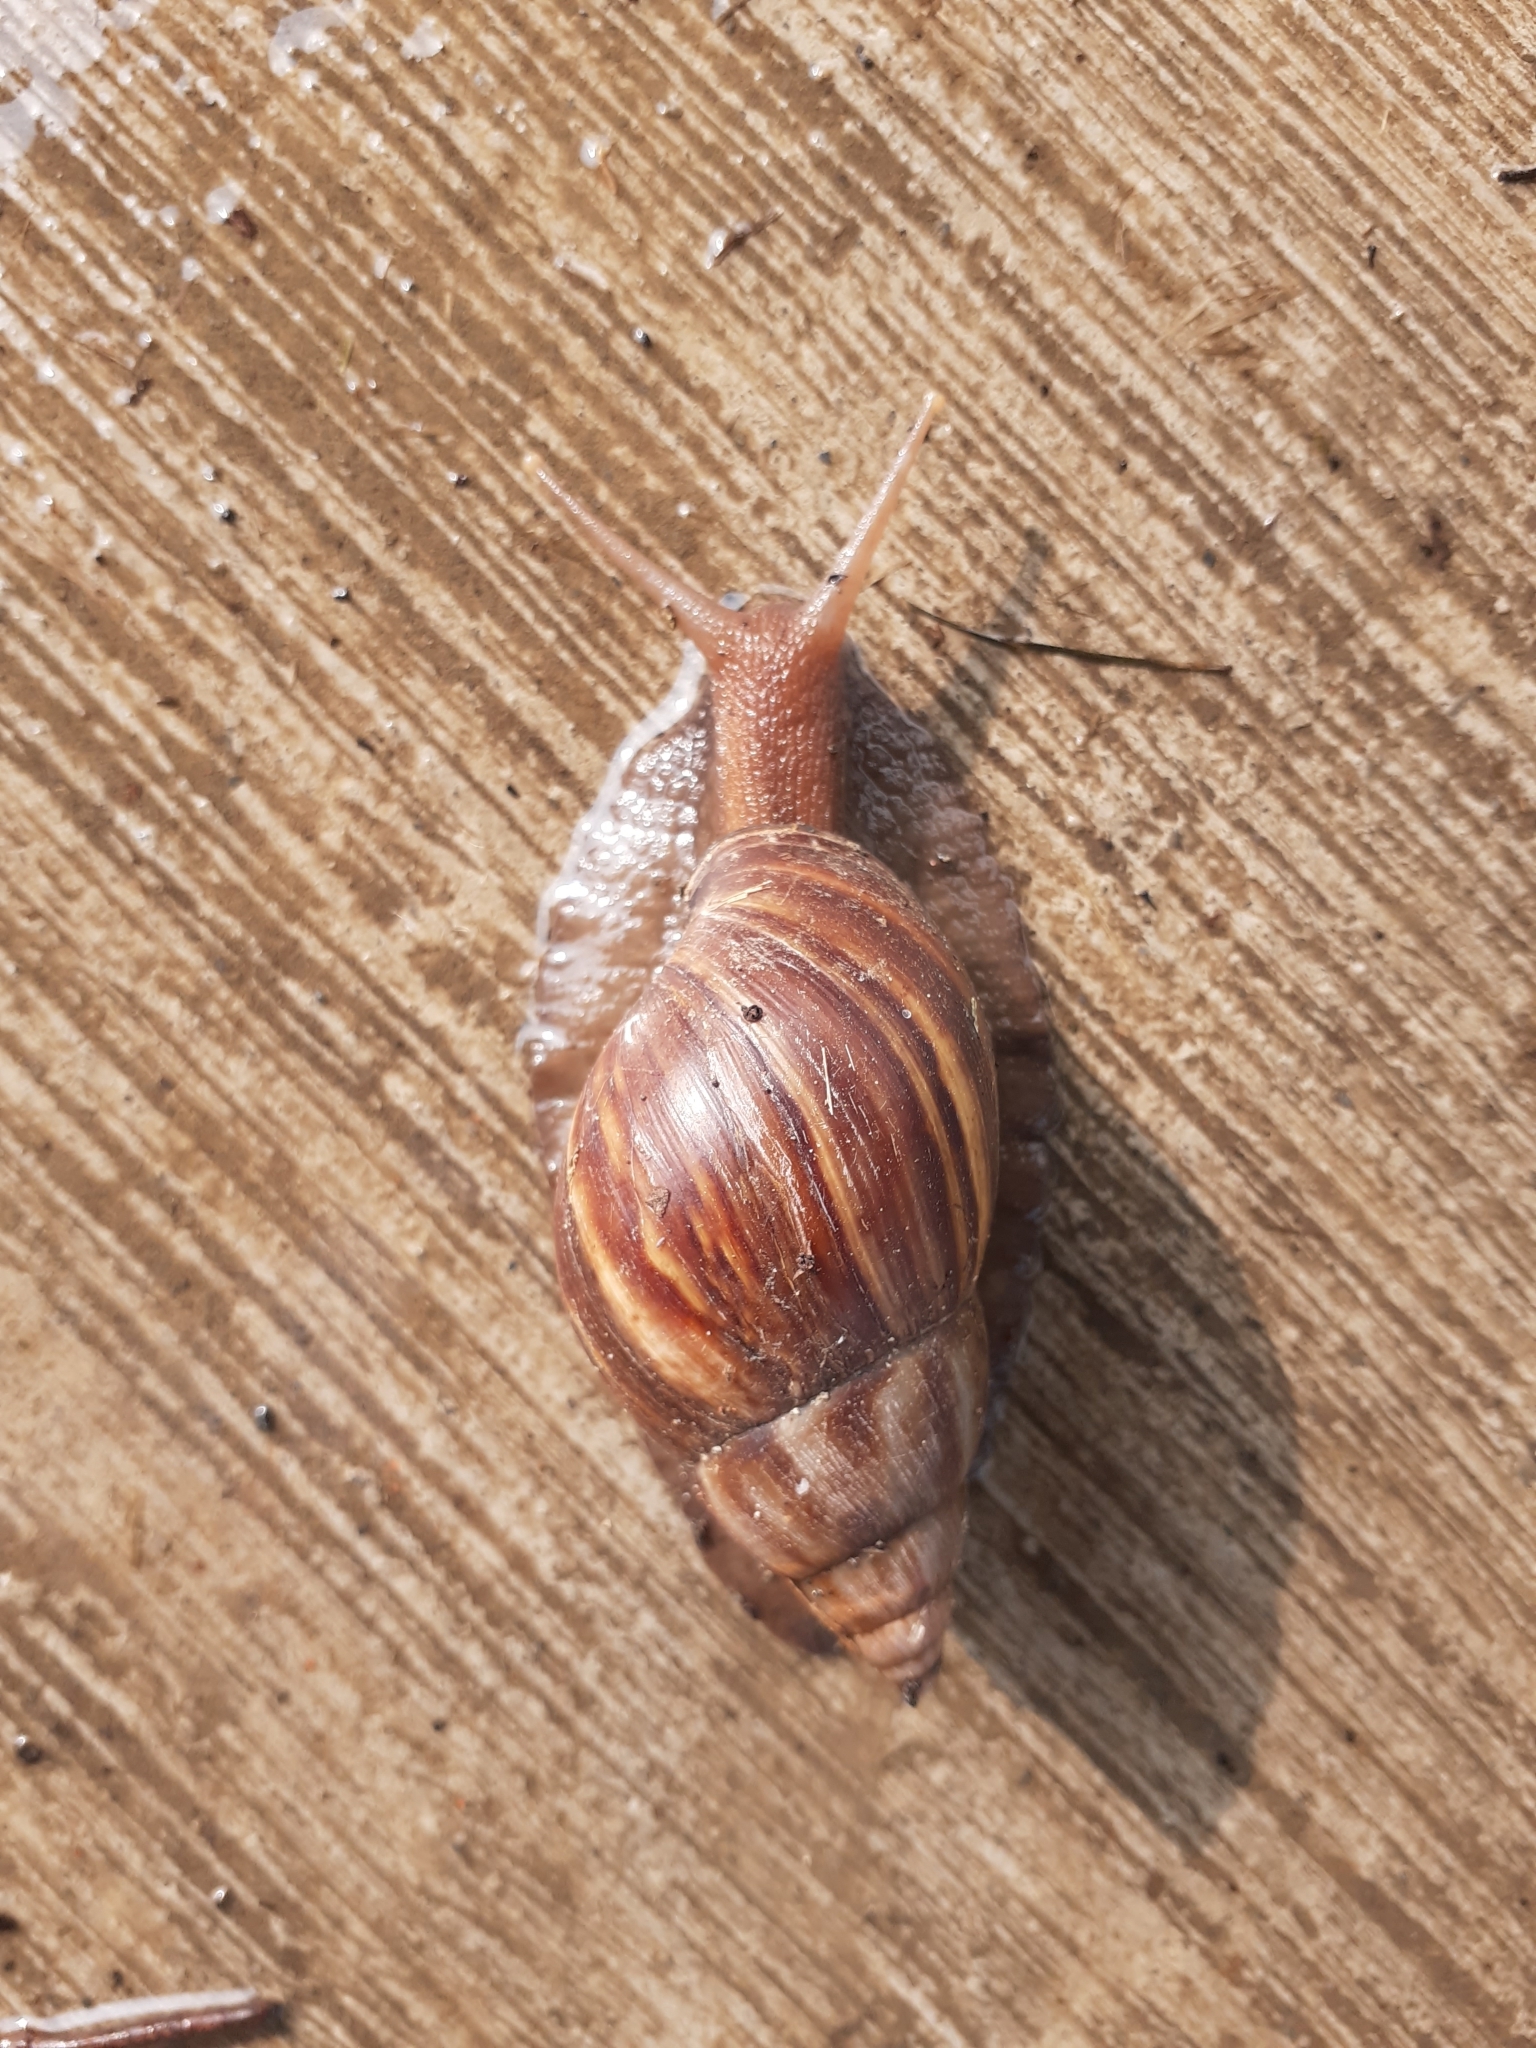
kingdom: Animalia
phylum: Mollusca
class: Gastropoda
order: Stylommatophora
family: Achatinidae
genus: Lissachatina
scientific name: Lissachatina fulica
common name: Giant african snail
